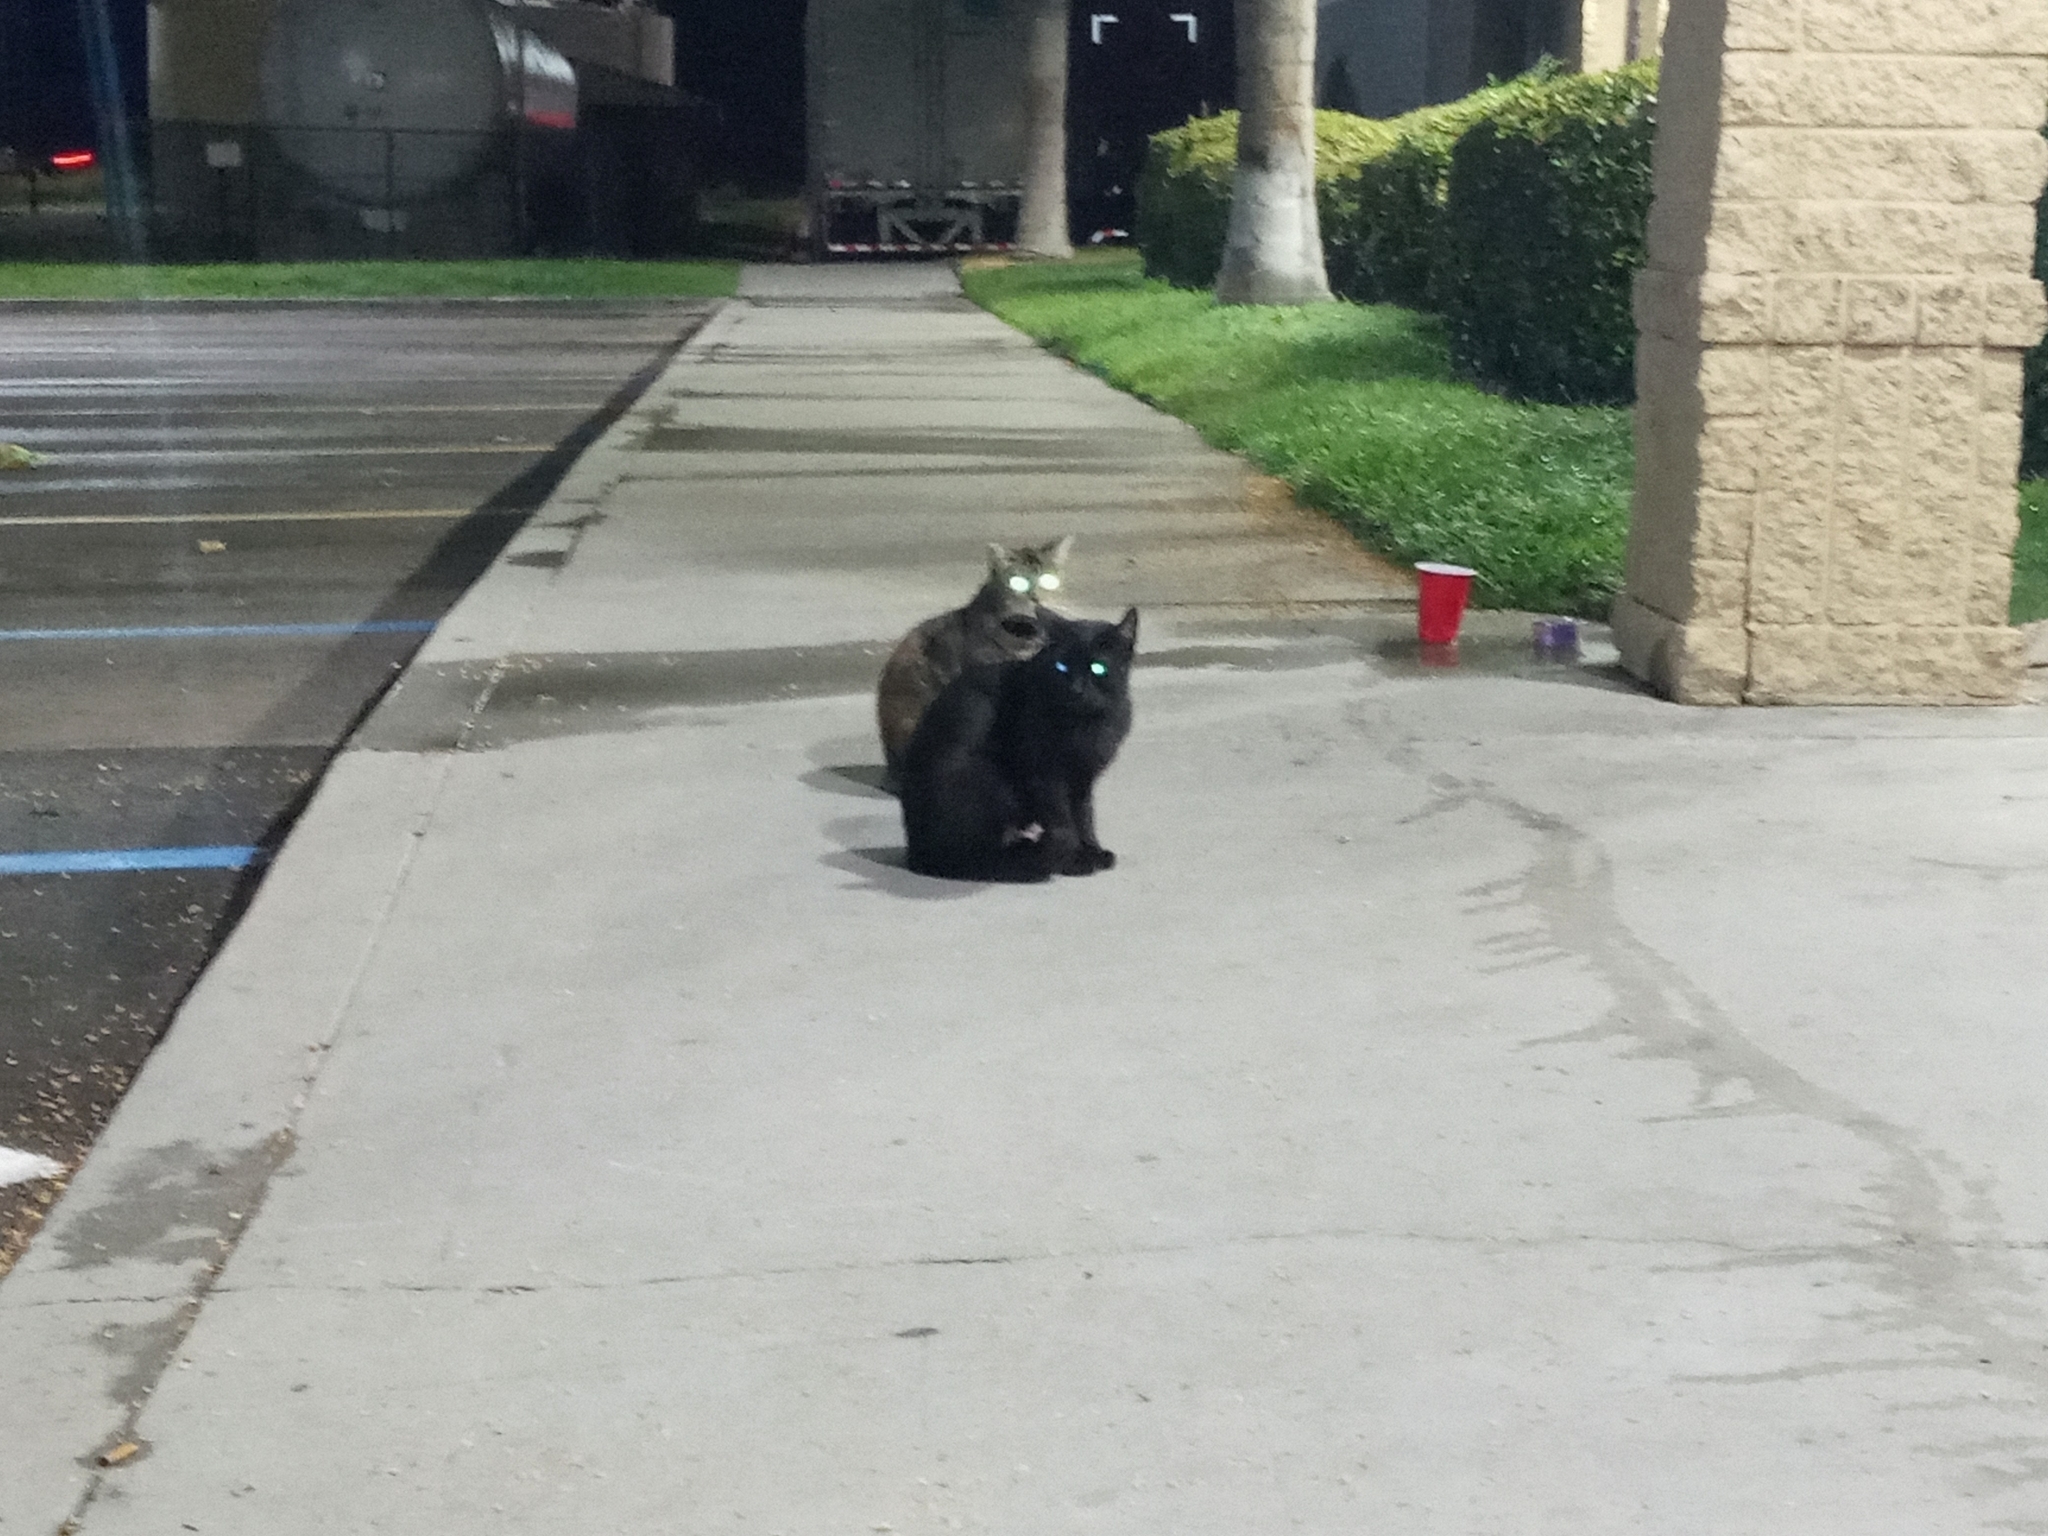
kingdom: Animalia
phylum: Chordata
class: Mammalia
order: Carnivora
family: Felidae
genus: Felis
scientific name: Felis catus
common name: Domestic cat
